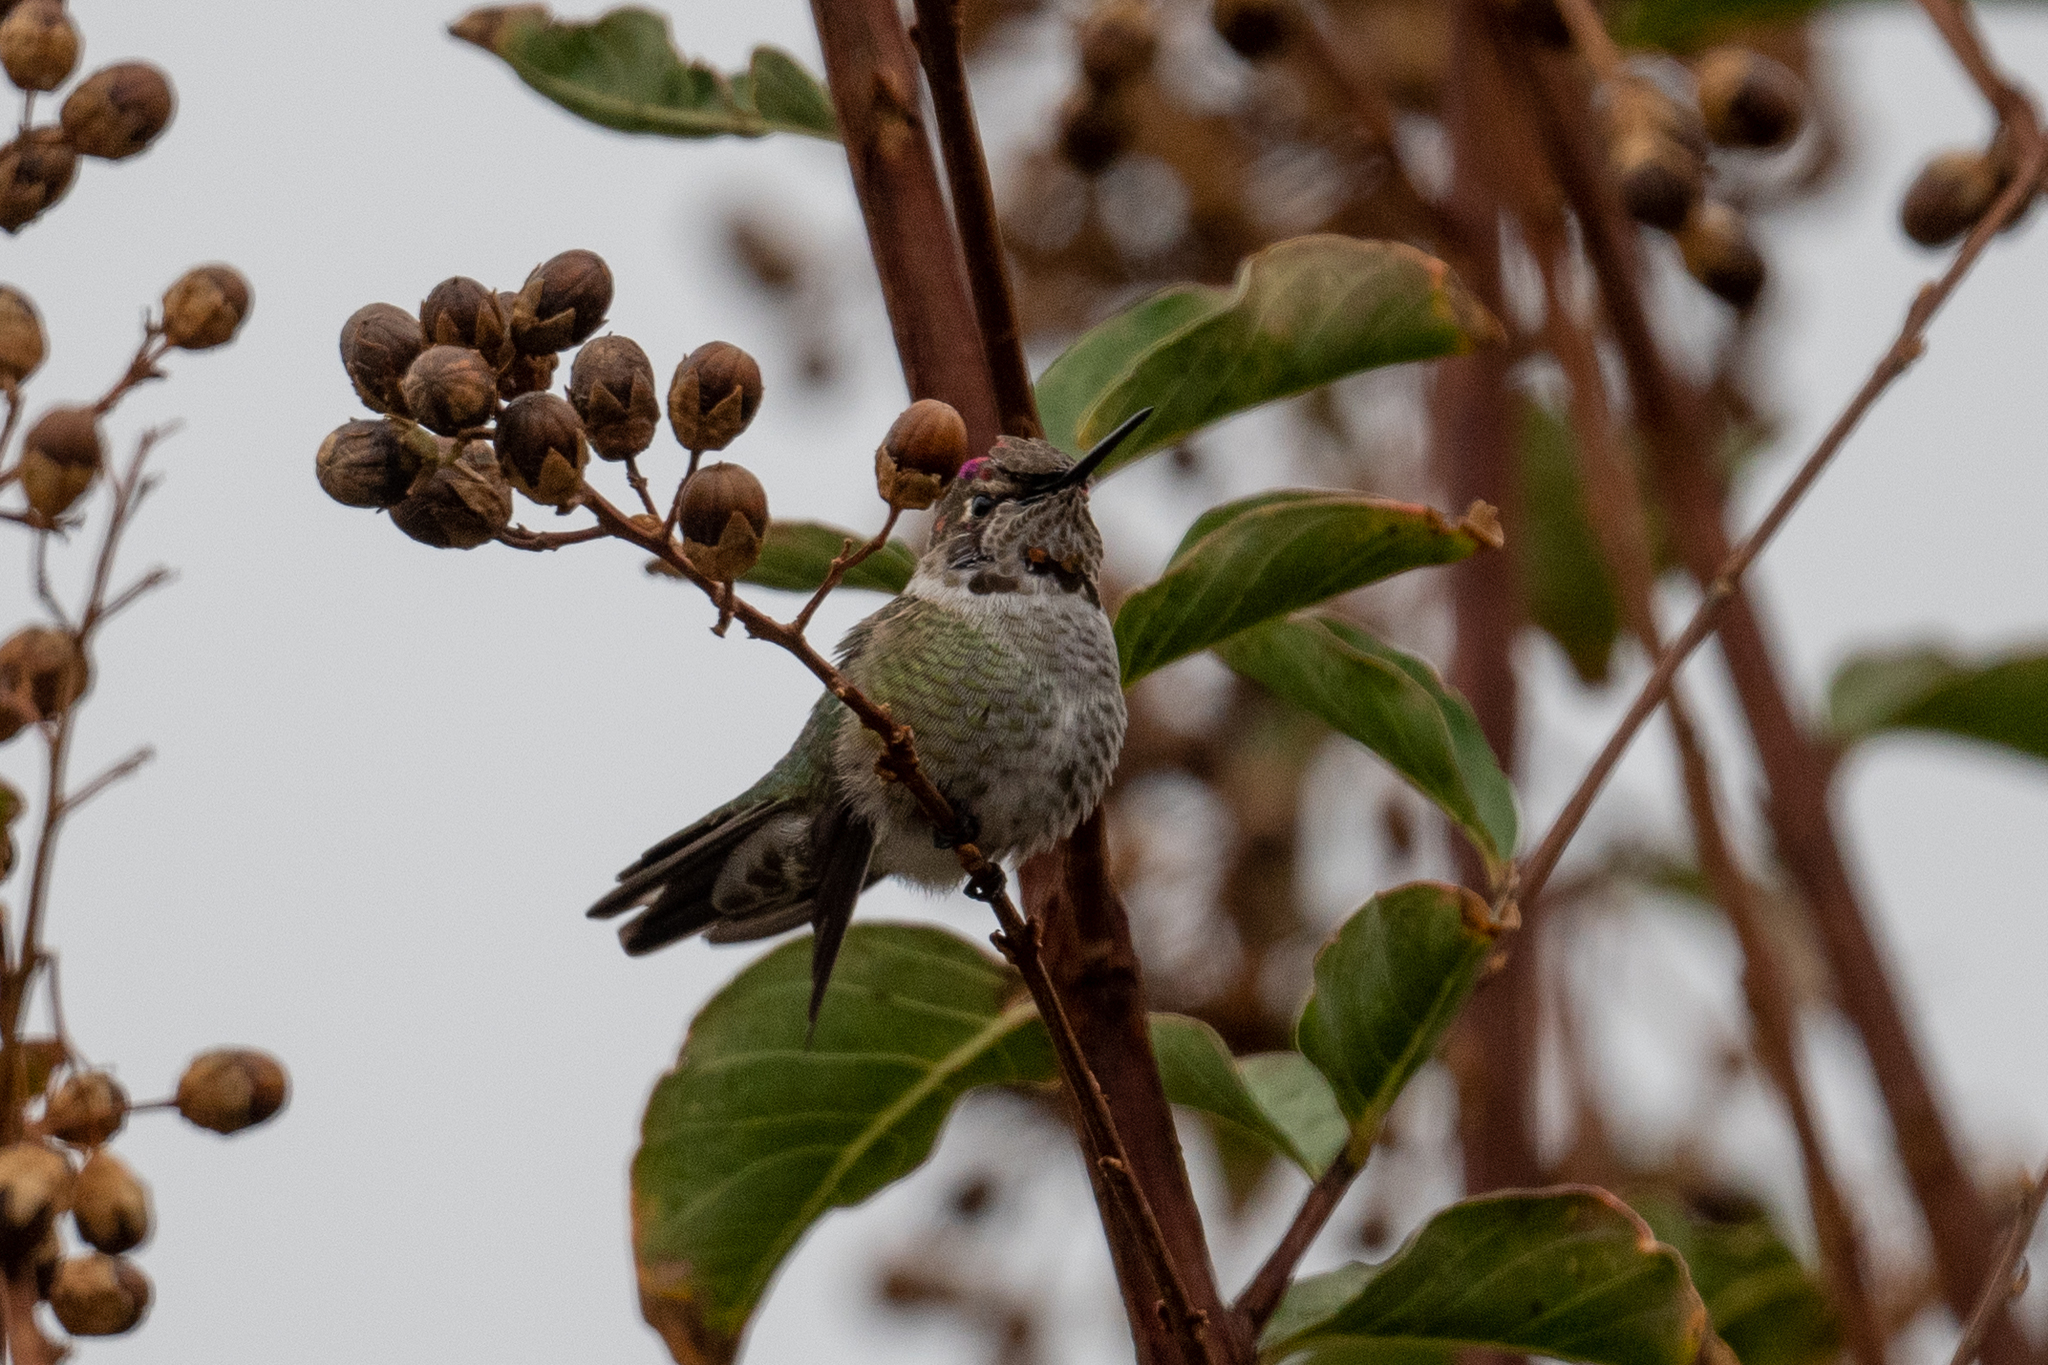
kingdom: Animalia
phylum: Chordata
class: Aves
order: Apodiformes
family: Trochilidae
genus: Calypte
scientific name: Calypte anna
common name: Anna's hummingbird
